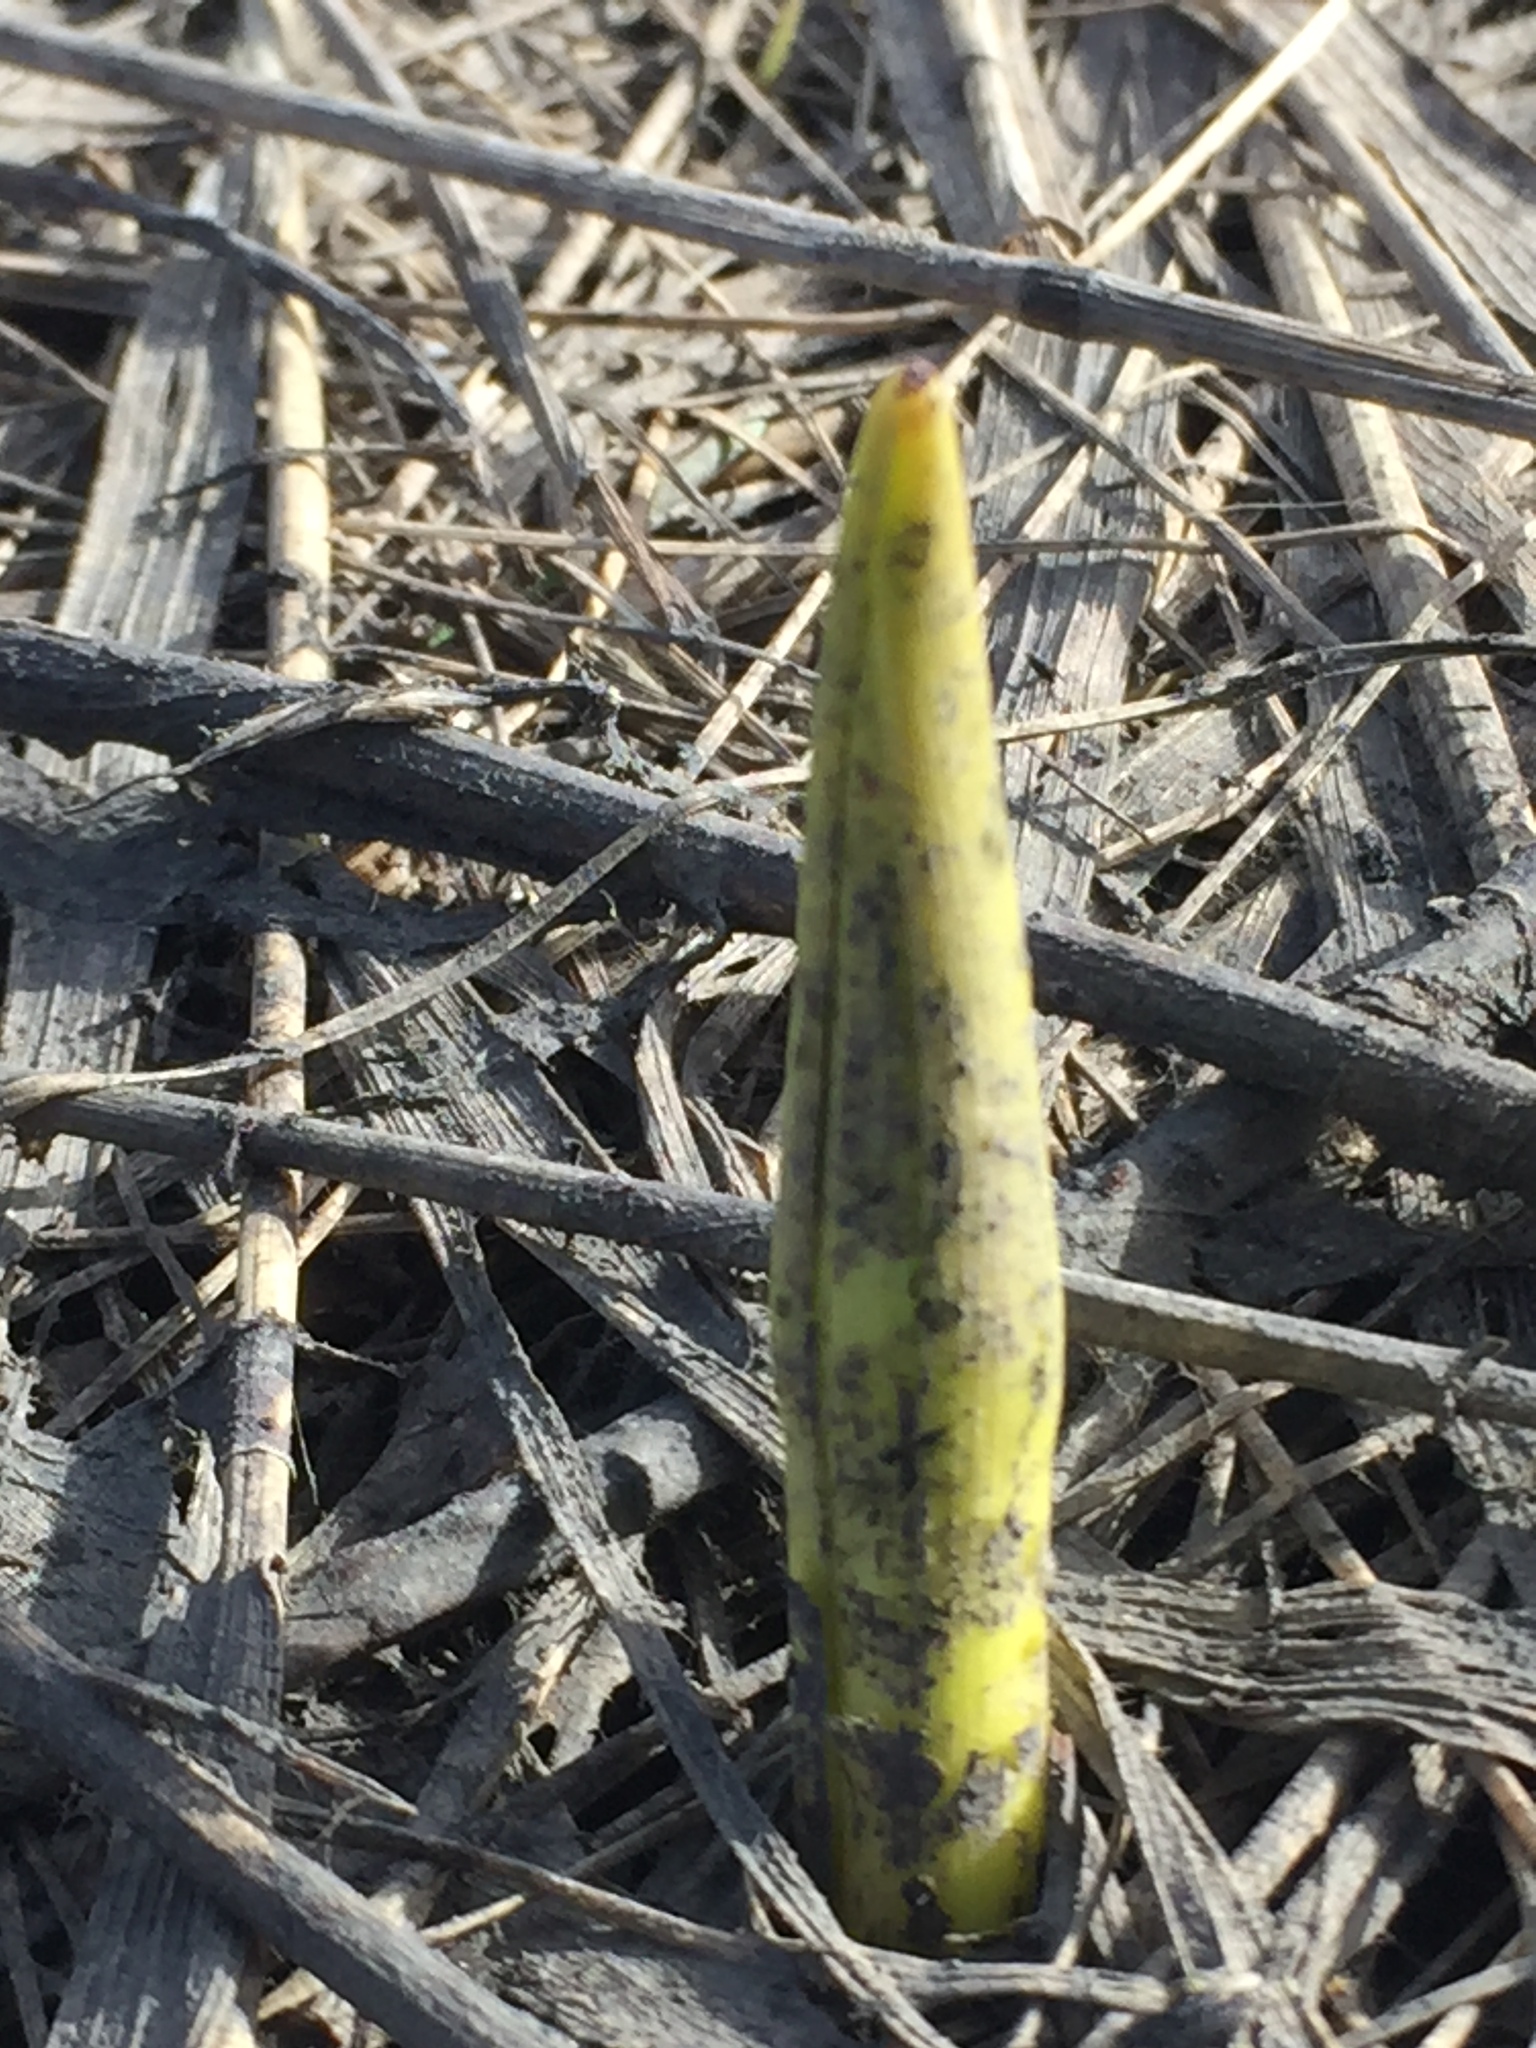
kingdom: Plantae
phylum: Tracheophyta
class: Liliopsida
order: Asparagales
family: Asparagaceae
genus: Bellevalia
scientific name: Bellevalia speciosa
